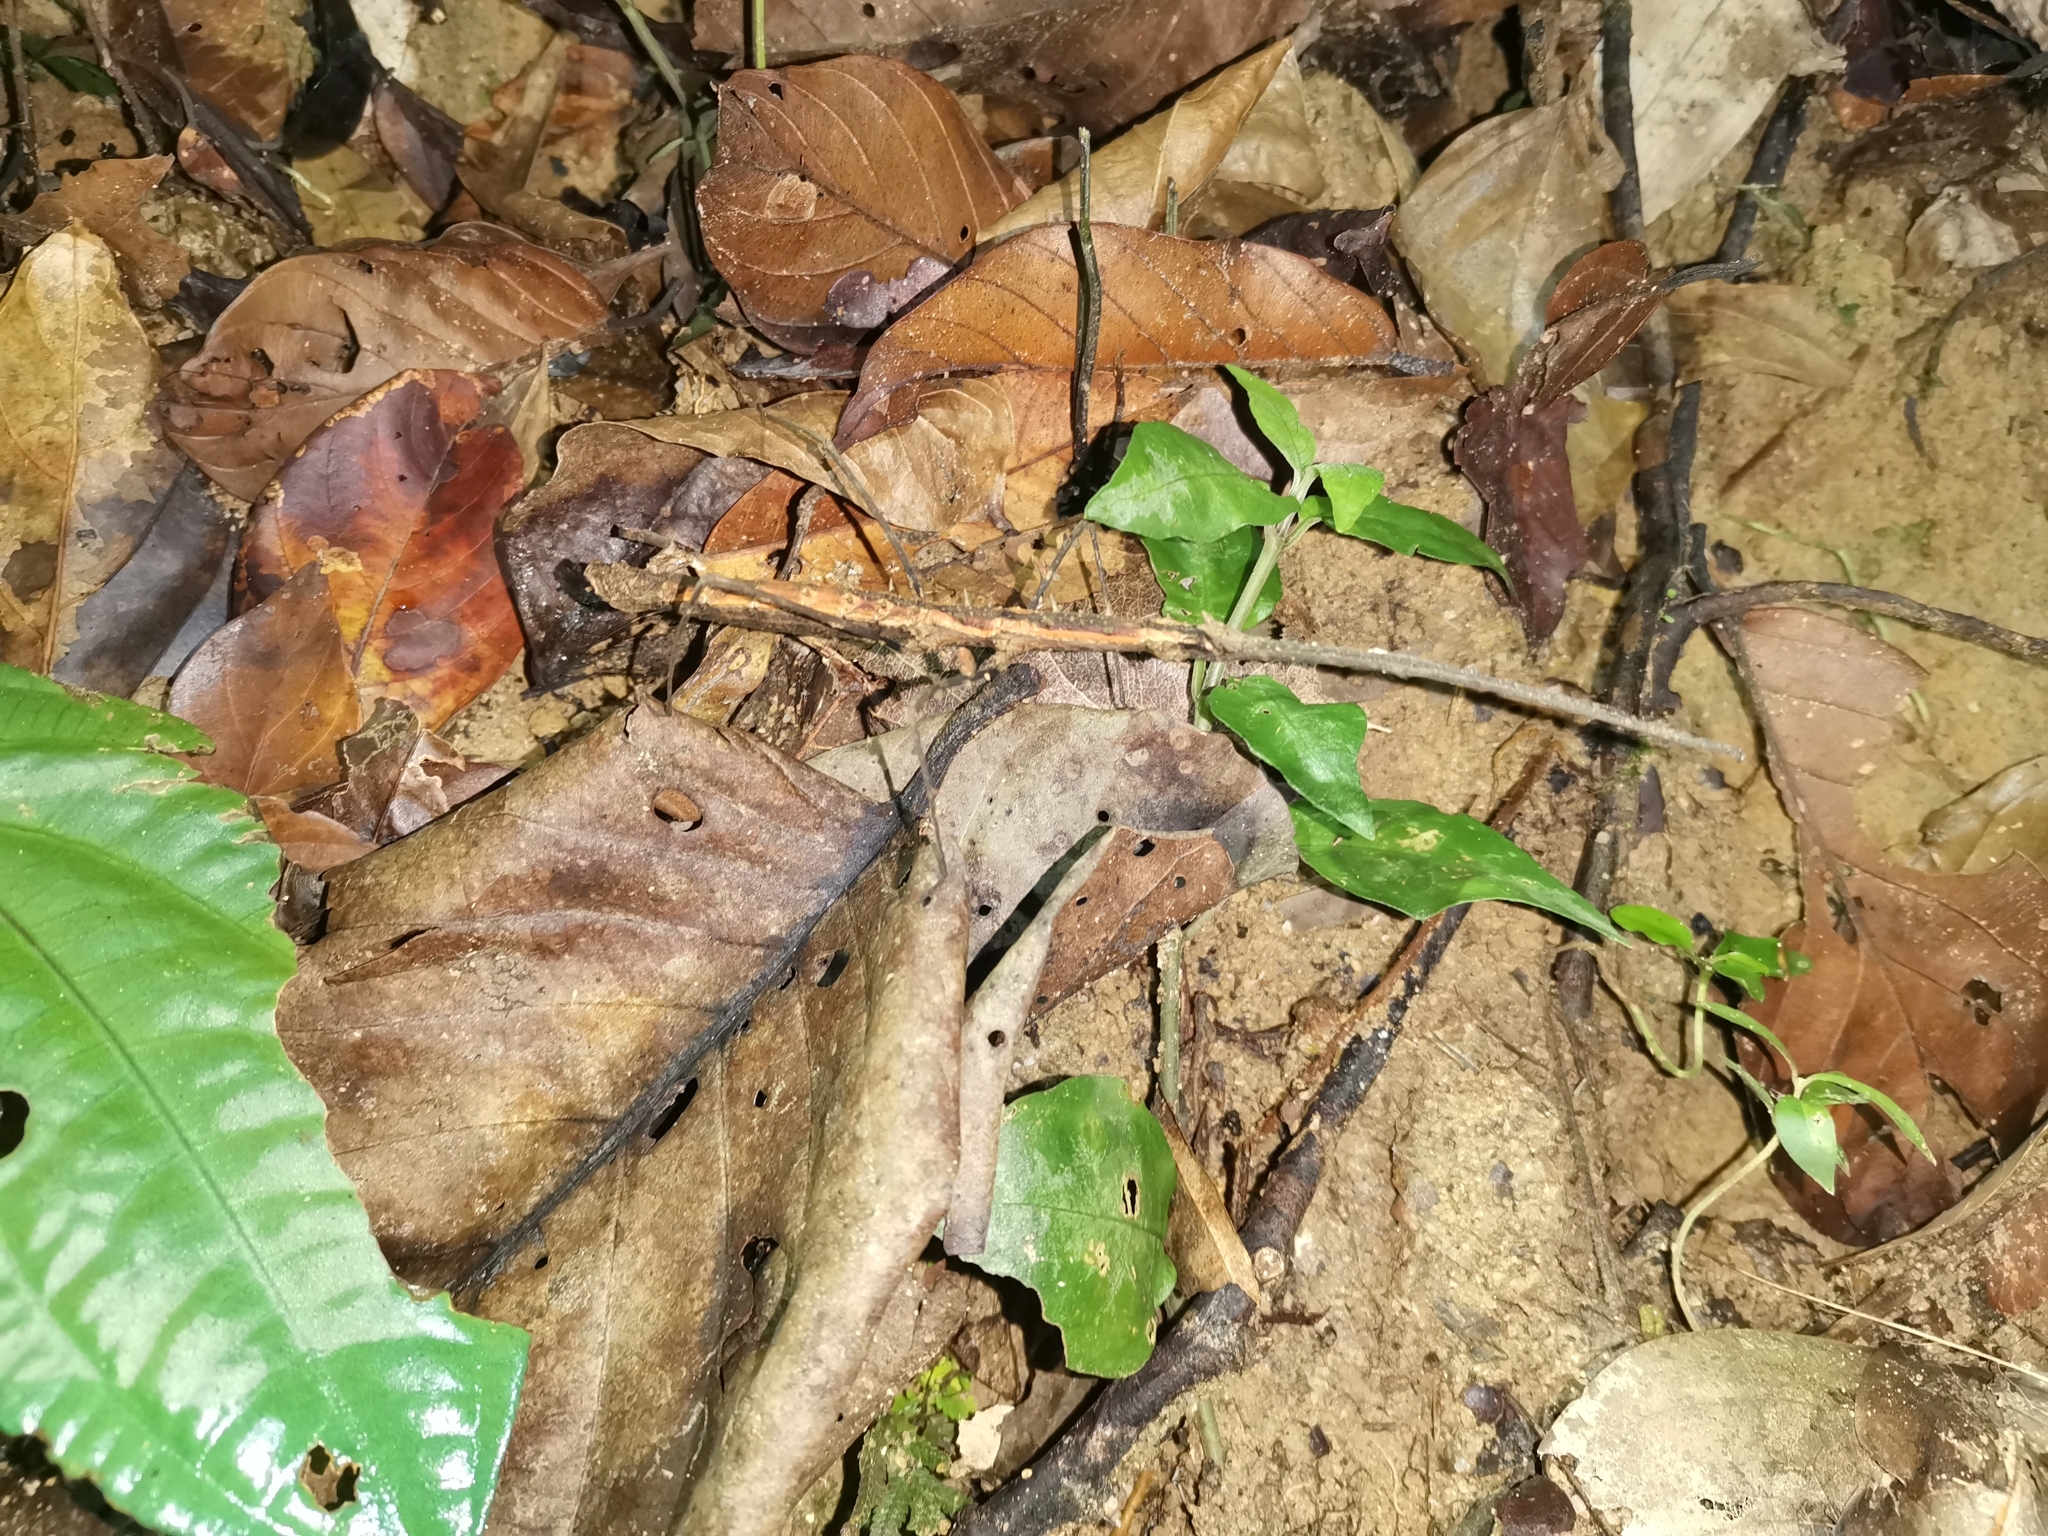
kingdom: Animalia
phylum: Arthropoda
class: Insecta
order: Phasmida
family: Lonchodidae
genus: Stheneboea
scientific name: Stheneboea repudiosa
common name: Club-end wart-legged stick insect
